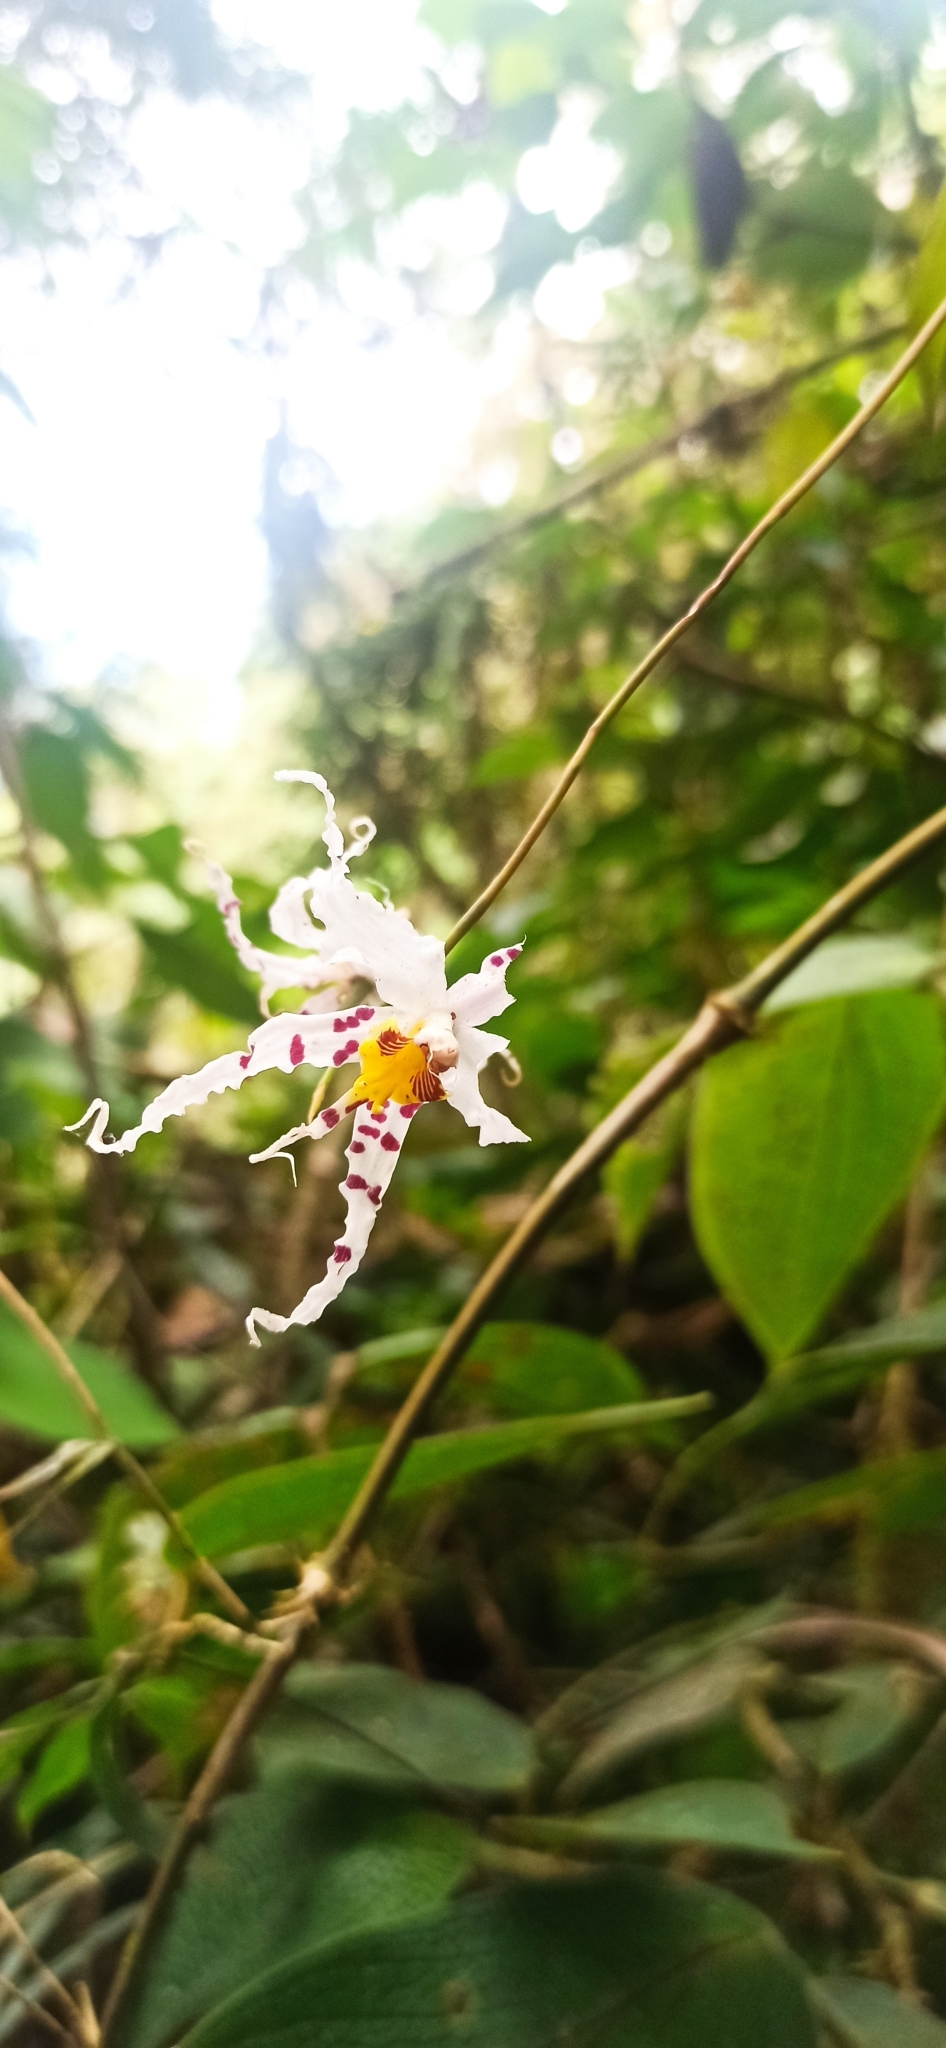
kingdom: Plantae
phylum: Tracheophyta
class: Liliopsida
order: Asparagales
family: Orchidaceae
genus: Oncidium
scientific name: Oncidium cirrhosum
